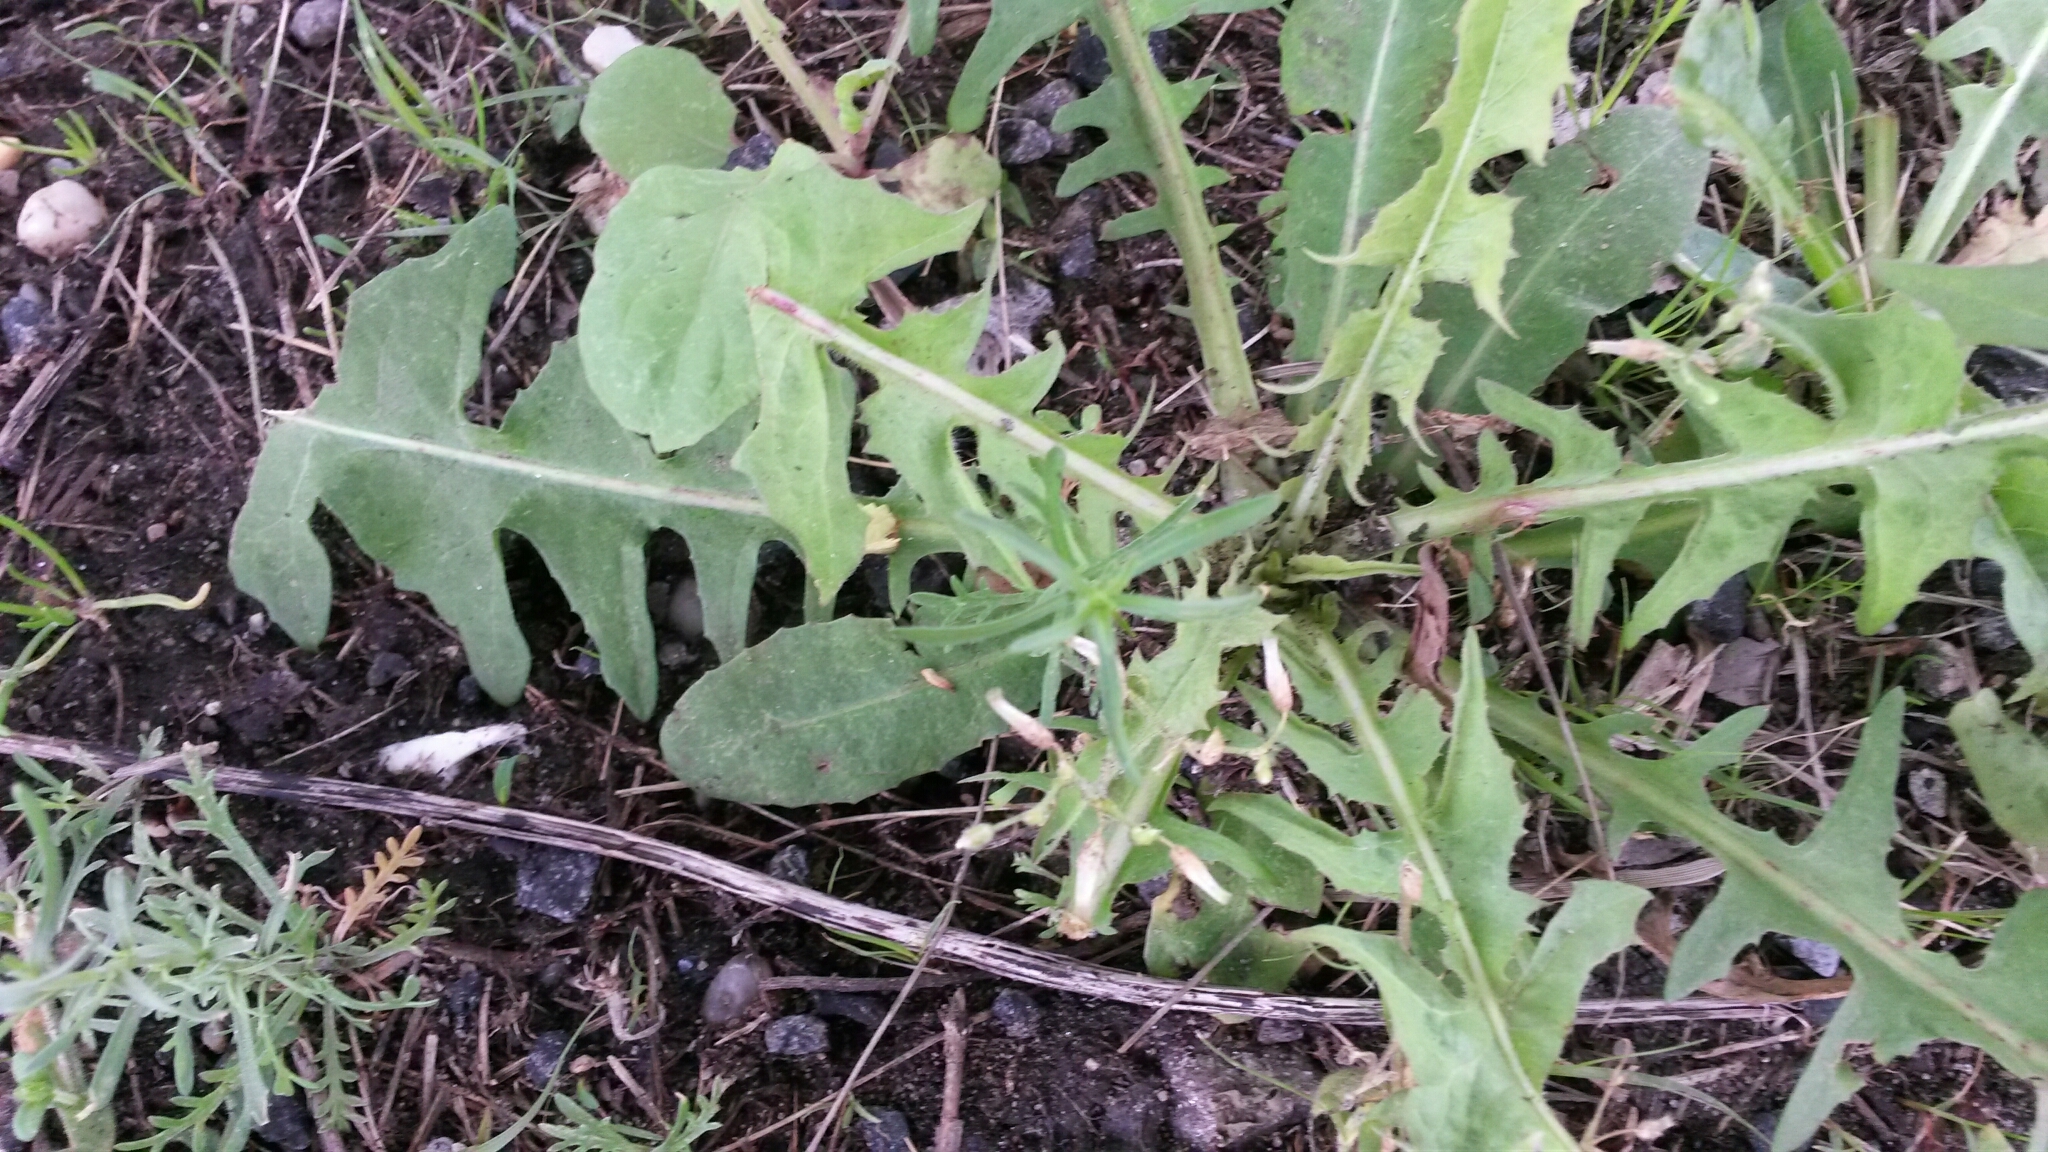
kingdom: Plantae
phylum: Tracheophyta
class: Magnoliopsida
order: Asterales
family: Asteraceae
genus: Taraxacum
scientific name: Taraxacum officinale
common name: Common dandelion
